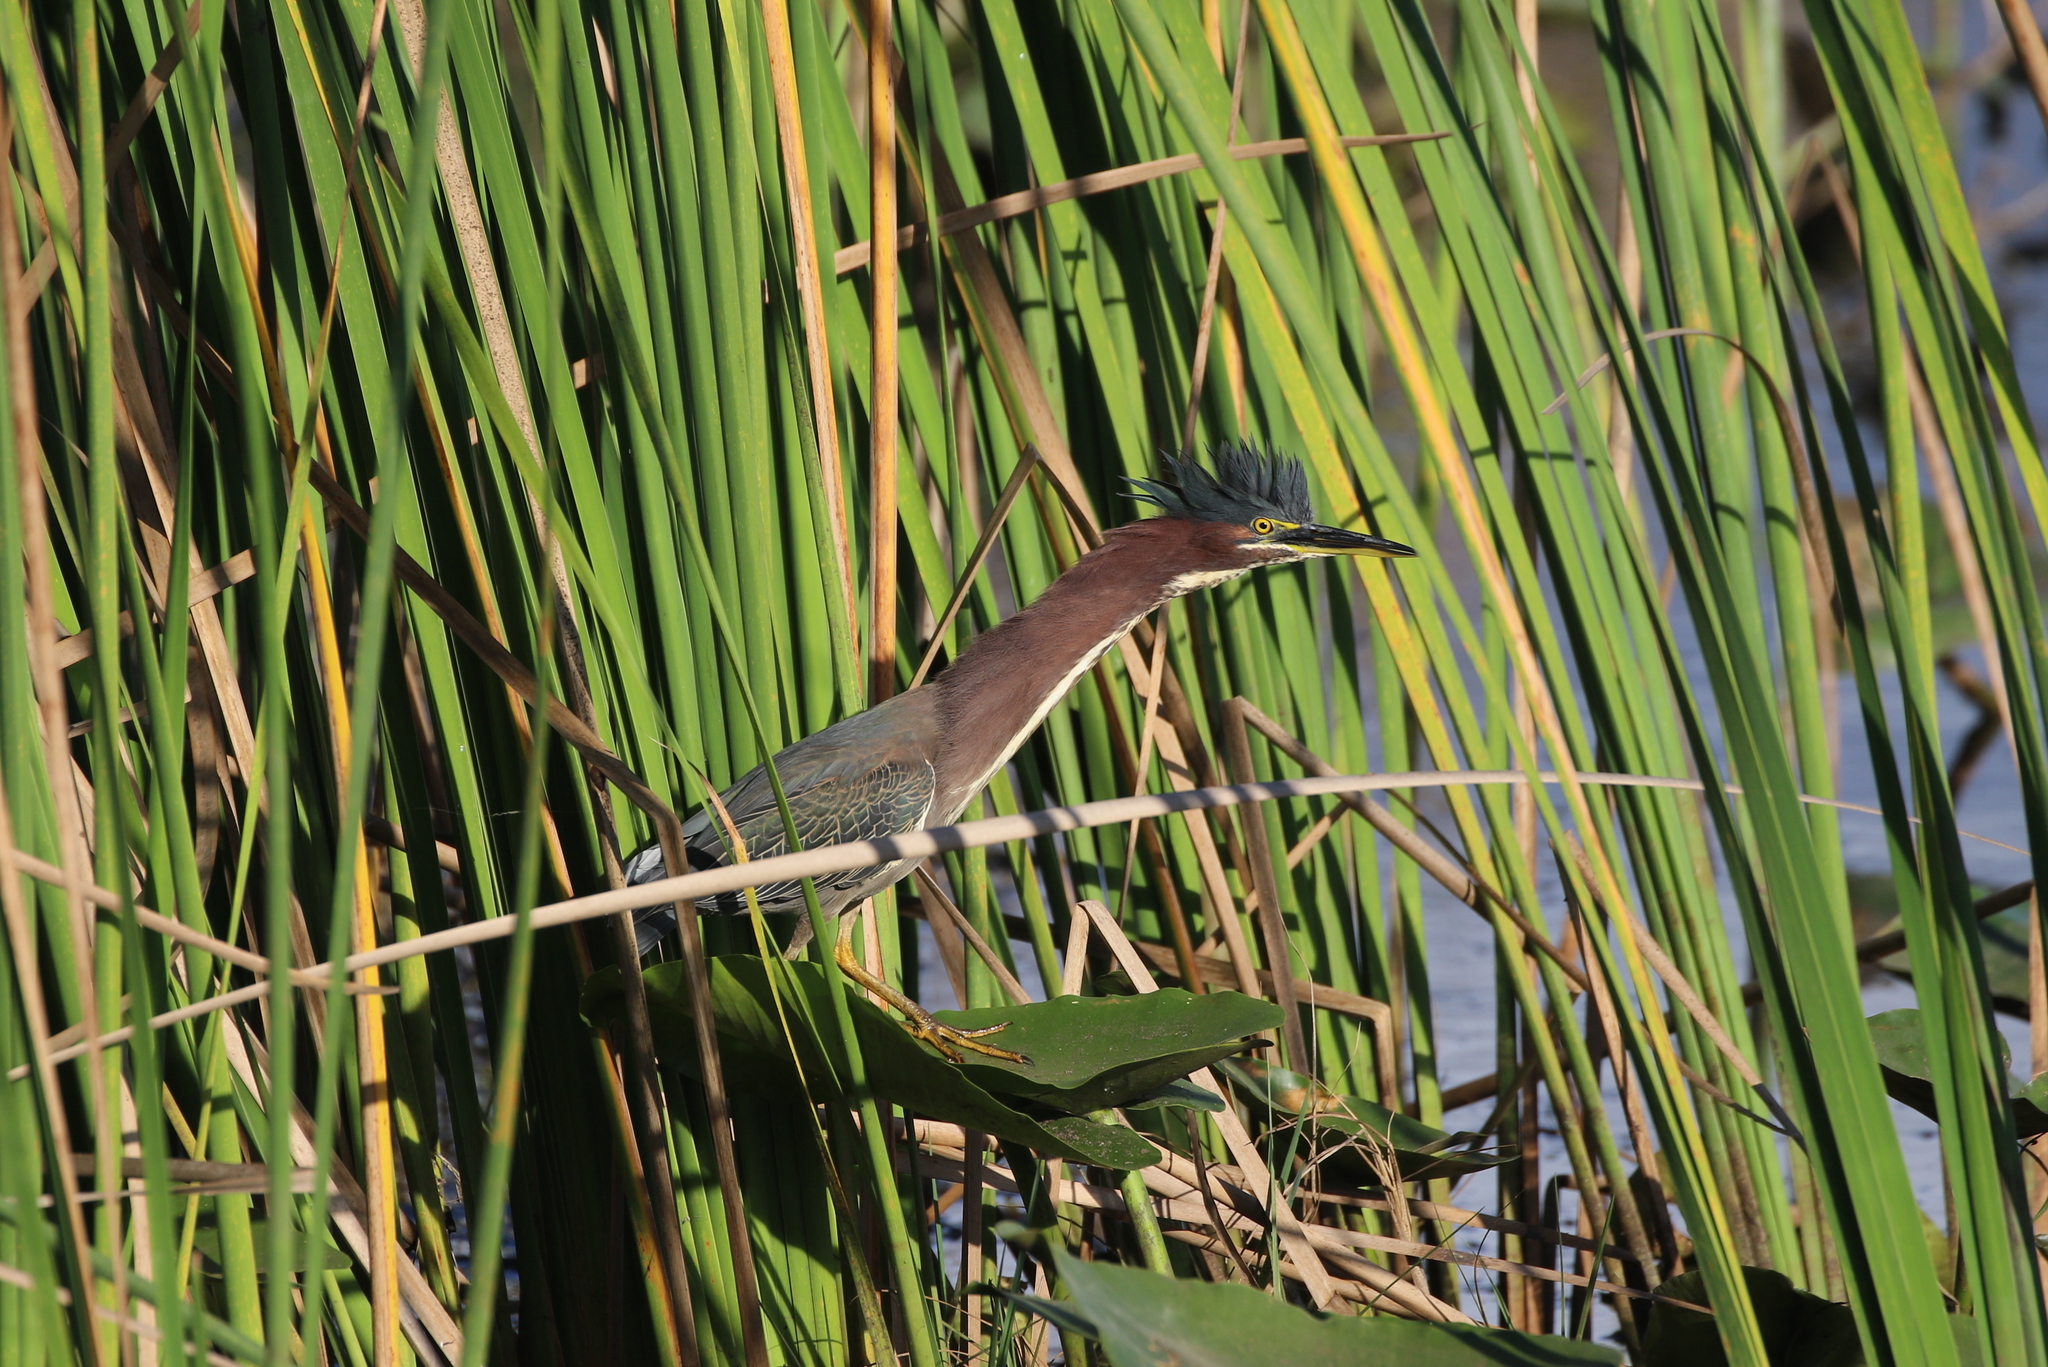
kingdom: Animalia
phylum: Chordata
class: Aves
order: Pelecaniformes
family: Ardeidae
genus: Butorides
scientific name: Butorides virescens
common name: Green heron
